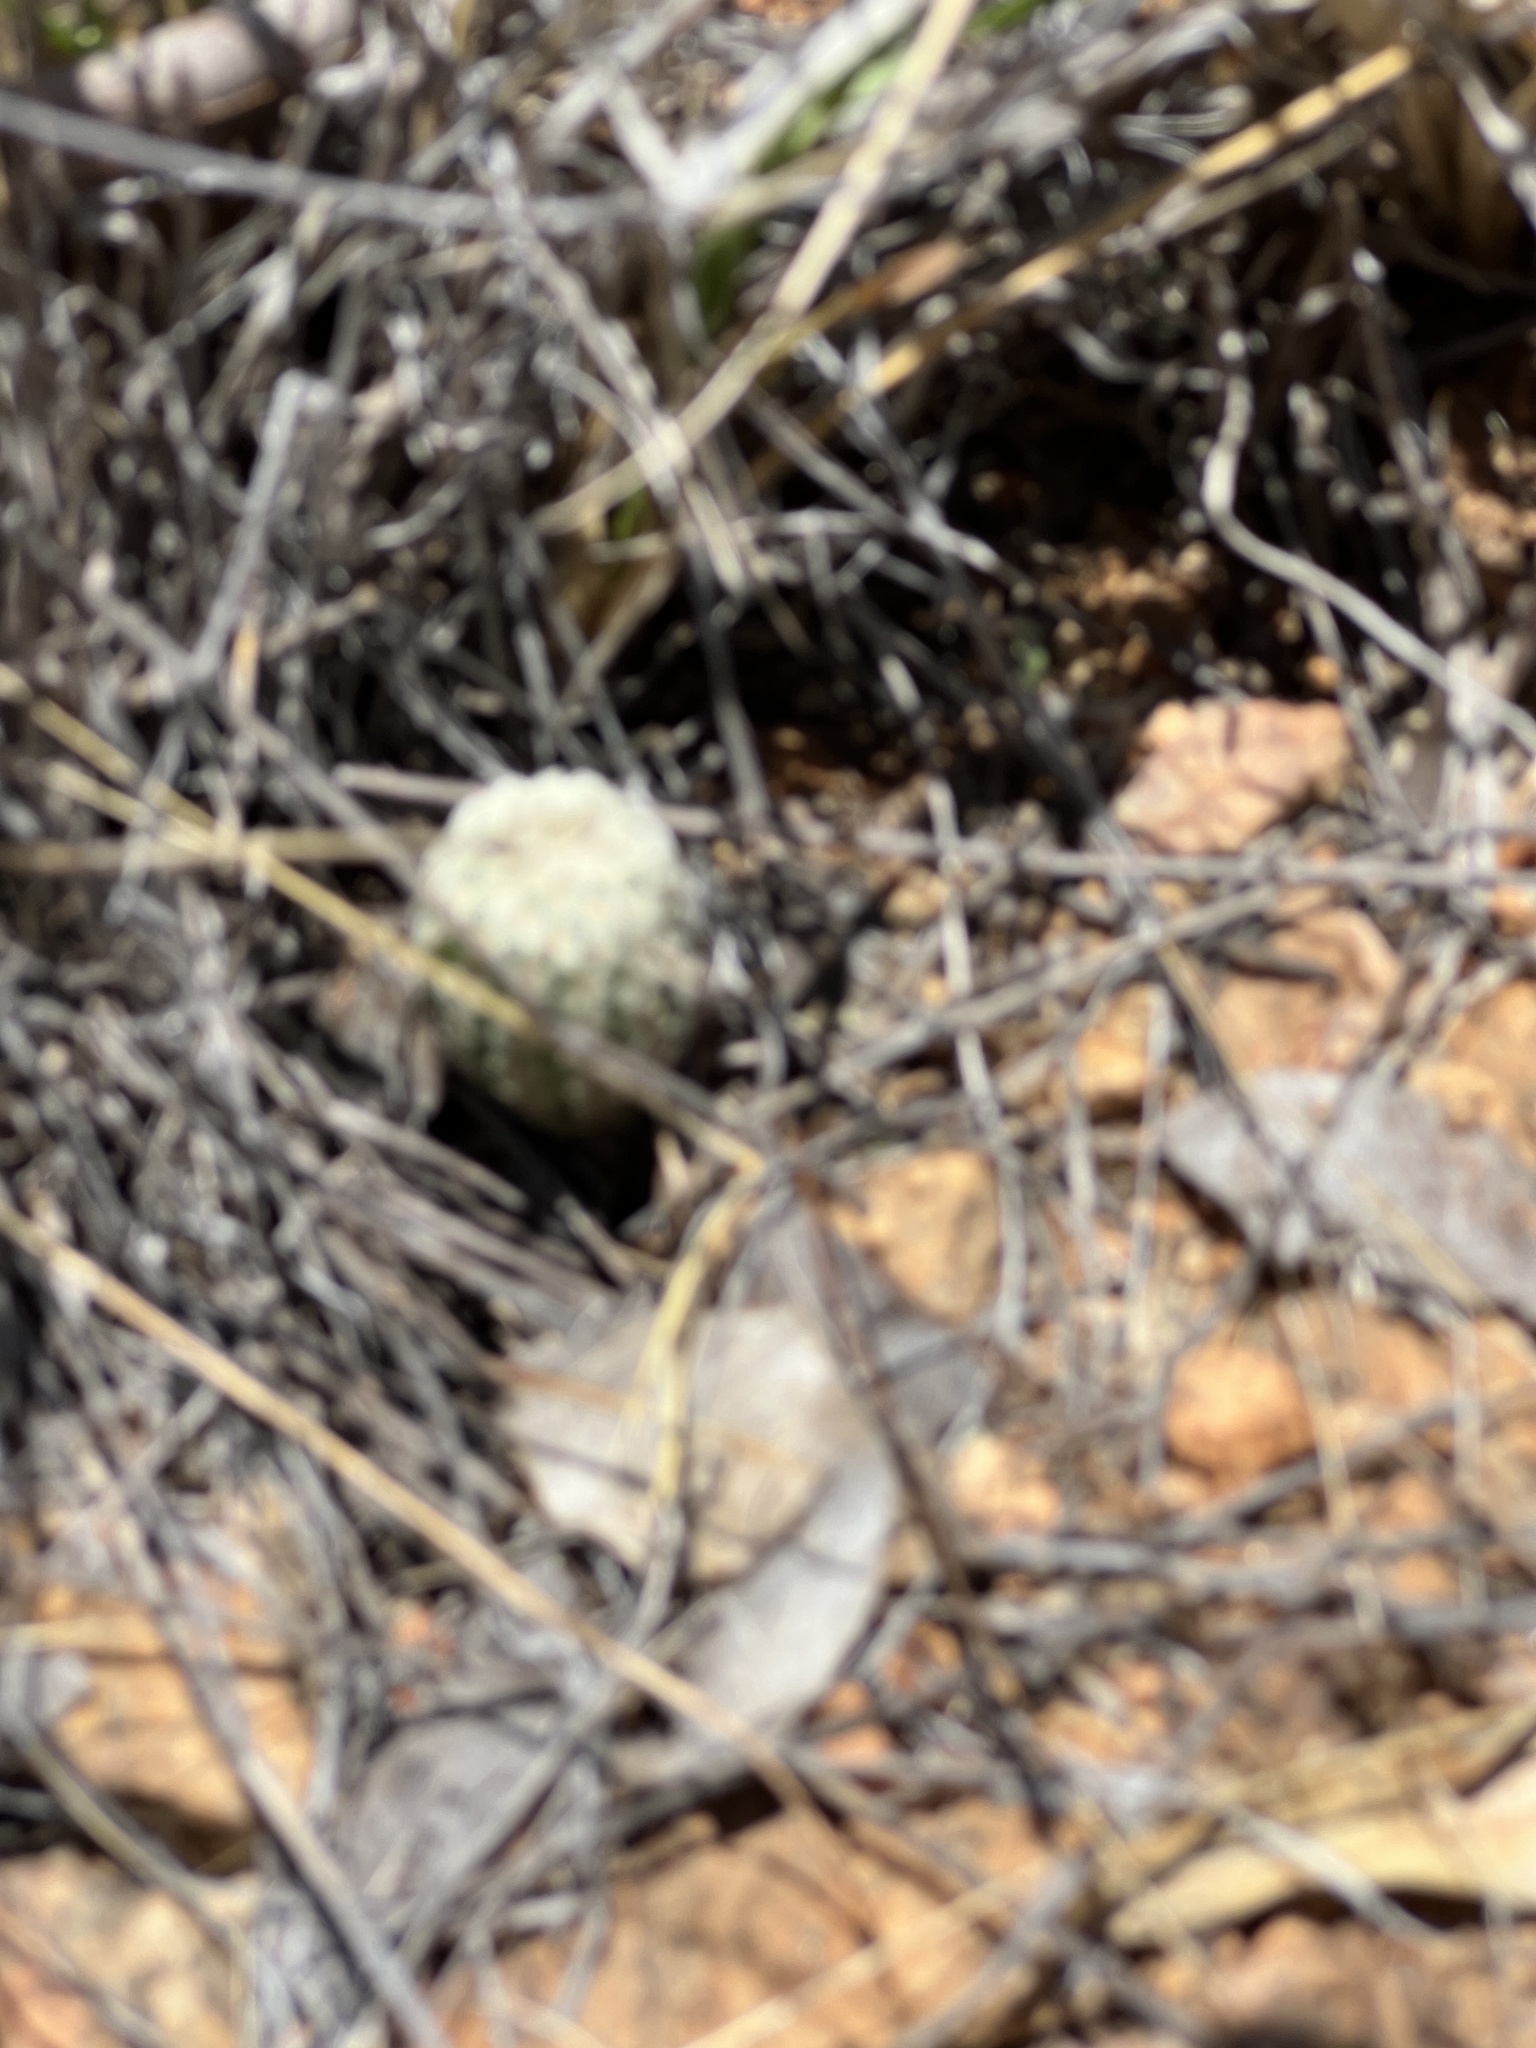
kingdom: Plantae
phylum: Tracheophyta
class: Magnoliopsida
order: Caryophyllales
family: Cactaceae
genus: Echinocereus
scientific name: Echinocereus rigidissimus
